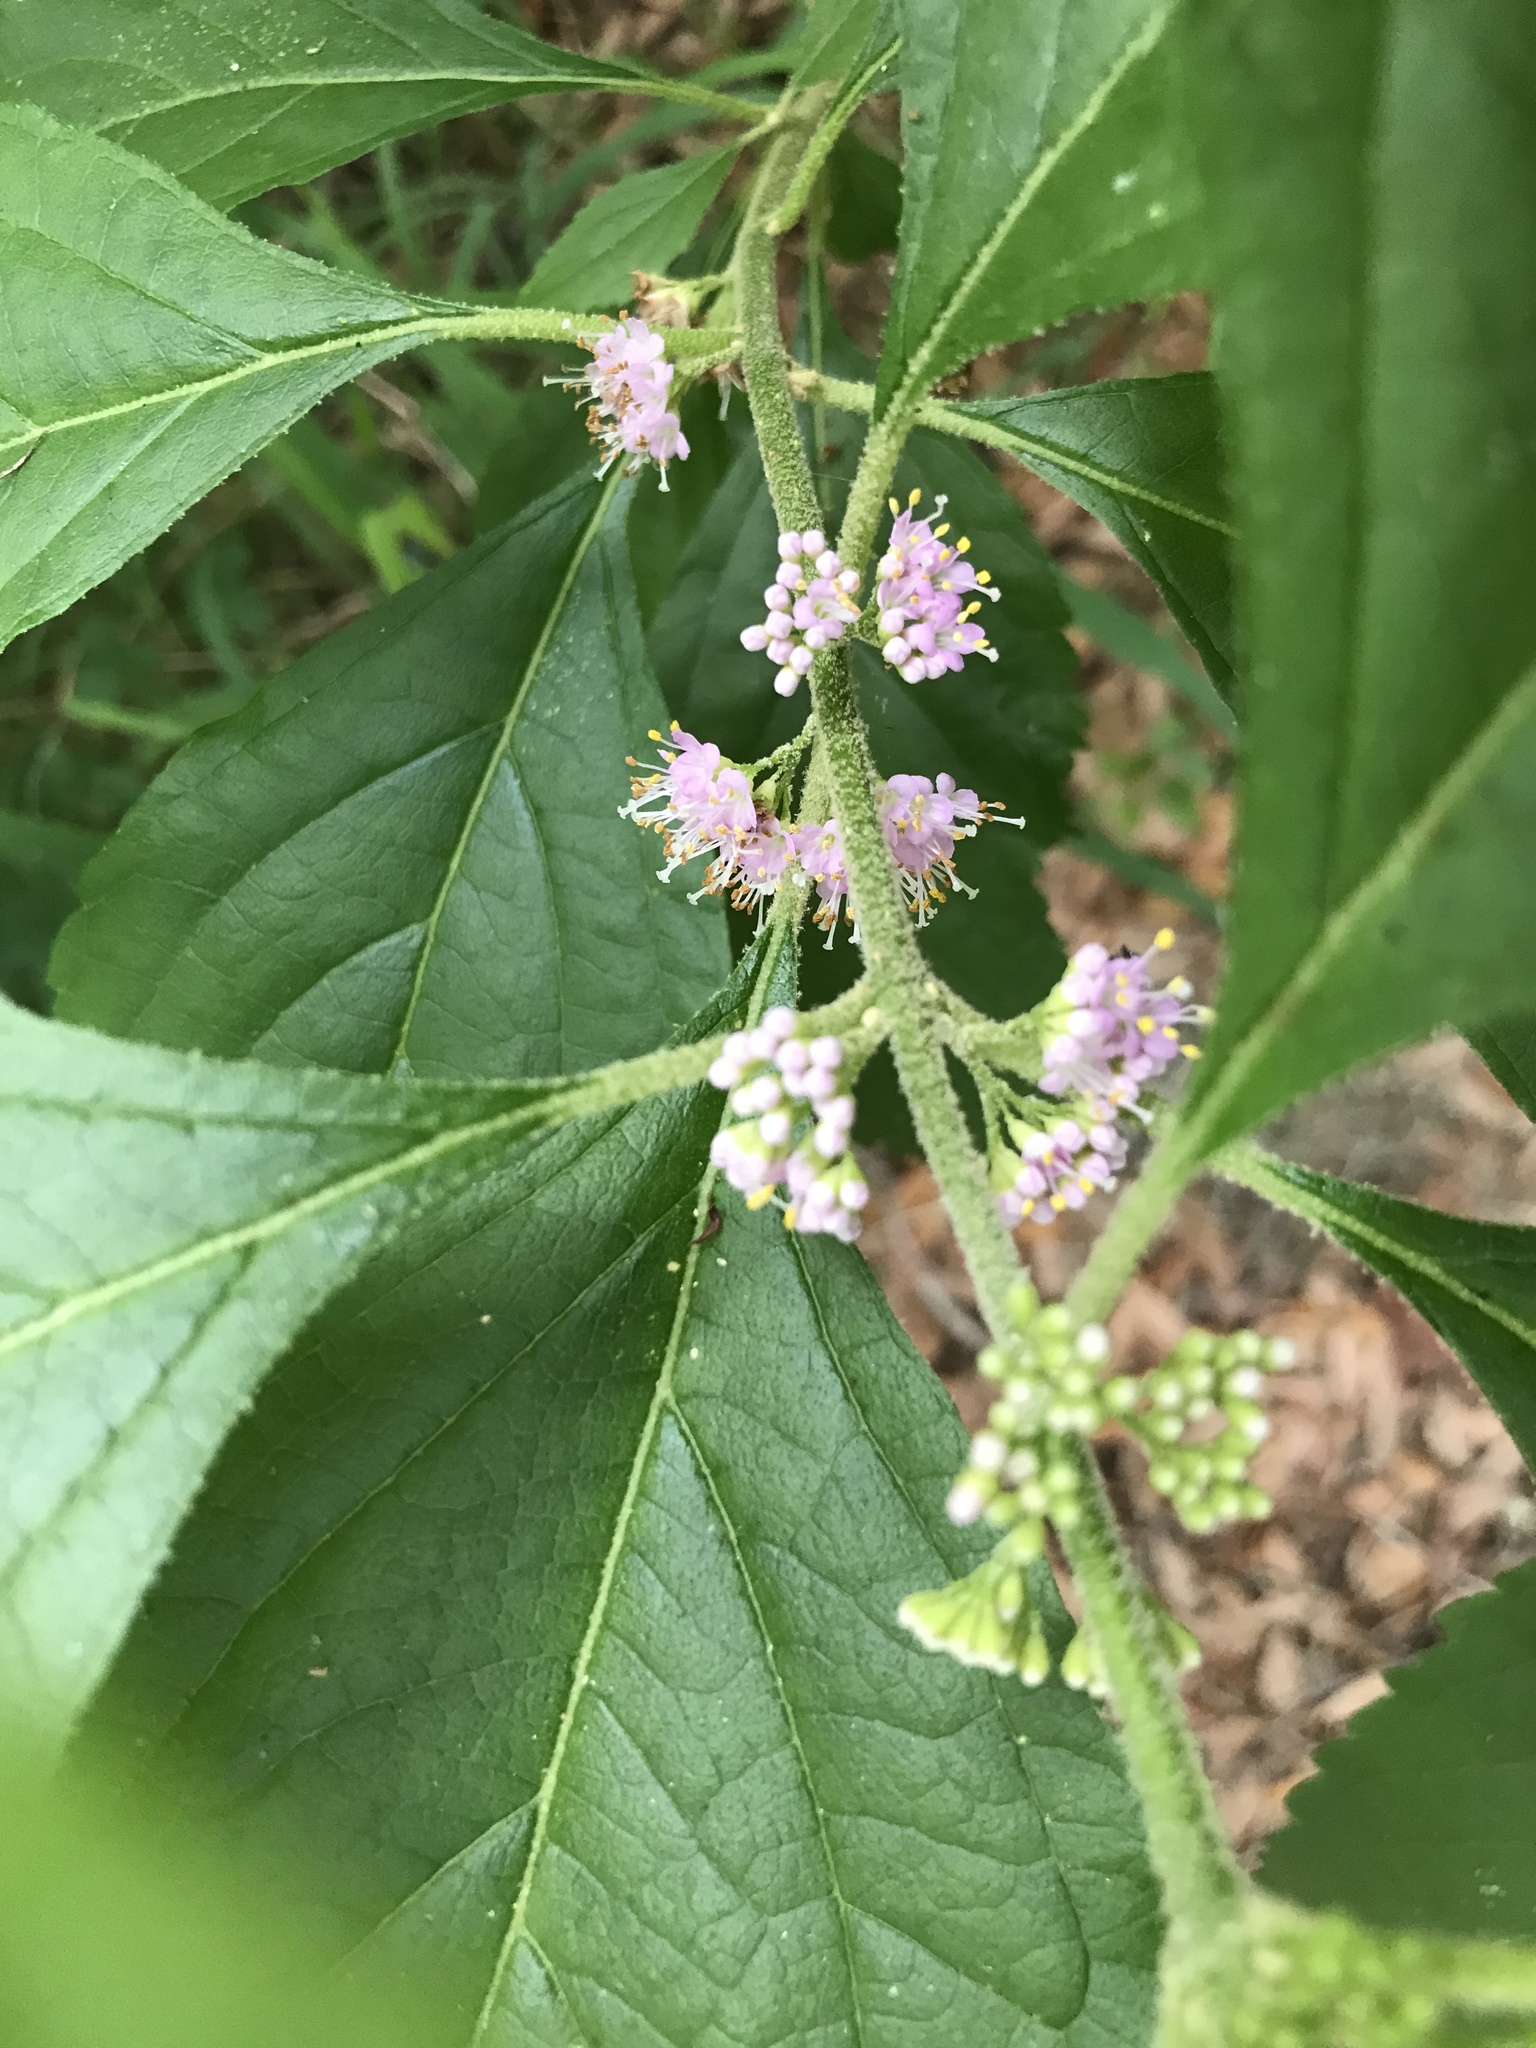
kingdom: Plantae
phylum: Tracheophyta
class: Magnoliopsida
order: Lamiales
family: Lamiaceae
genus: Callicarpa
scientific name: Callicarpa americana
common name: American beautyberry
